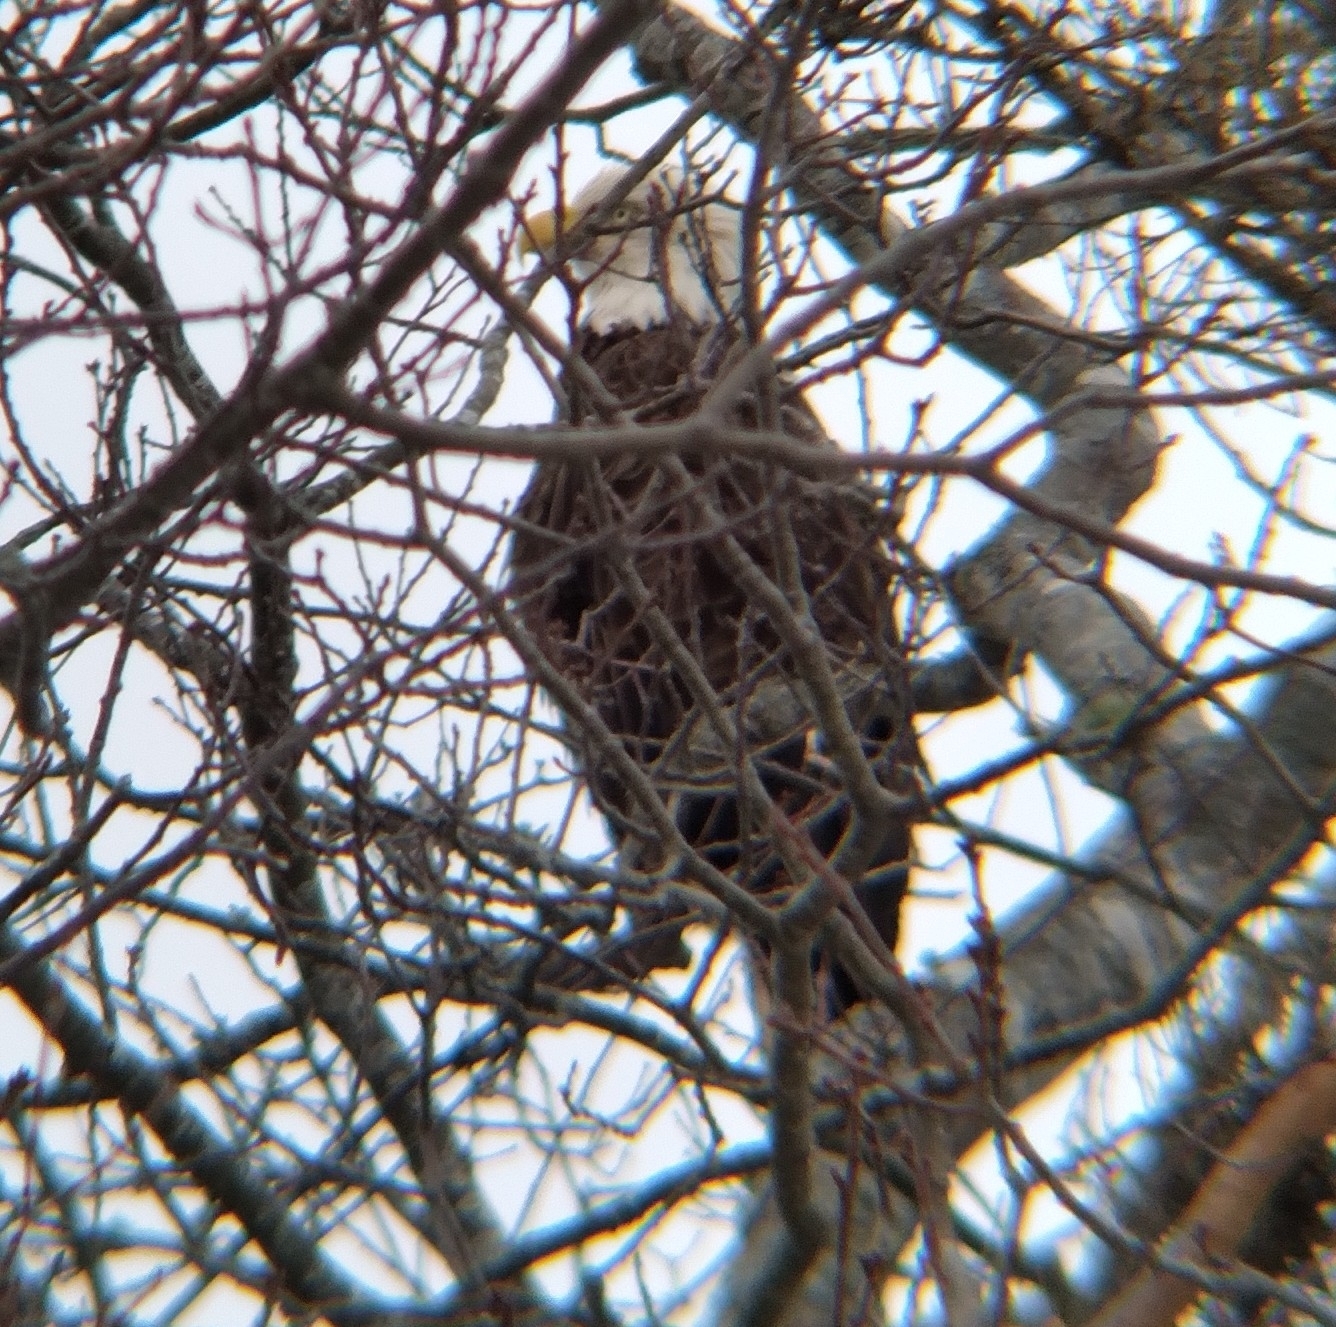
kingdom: Animalia
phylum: Chordata
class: Aves
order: Accipitriformes
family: Accipitridae
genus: Haliaeetus
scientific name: Haliaeetus leucocephalus
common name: Bald eagle
